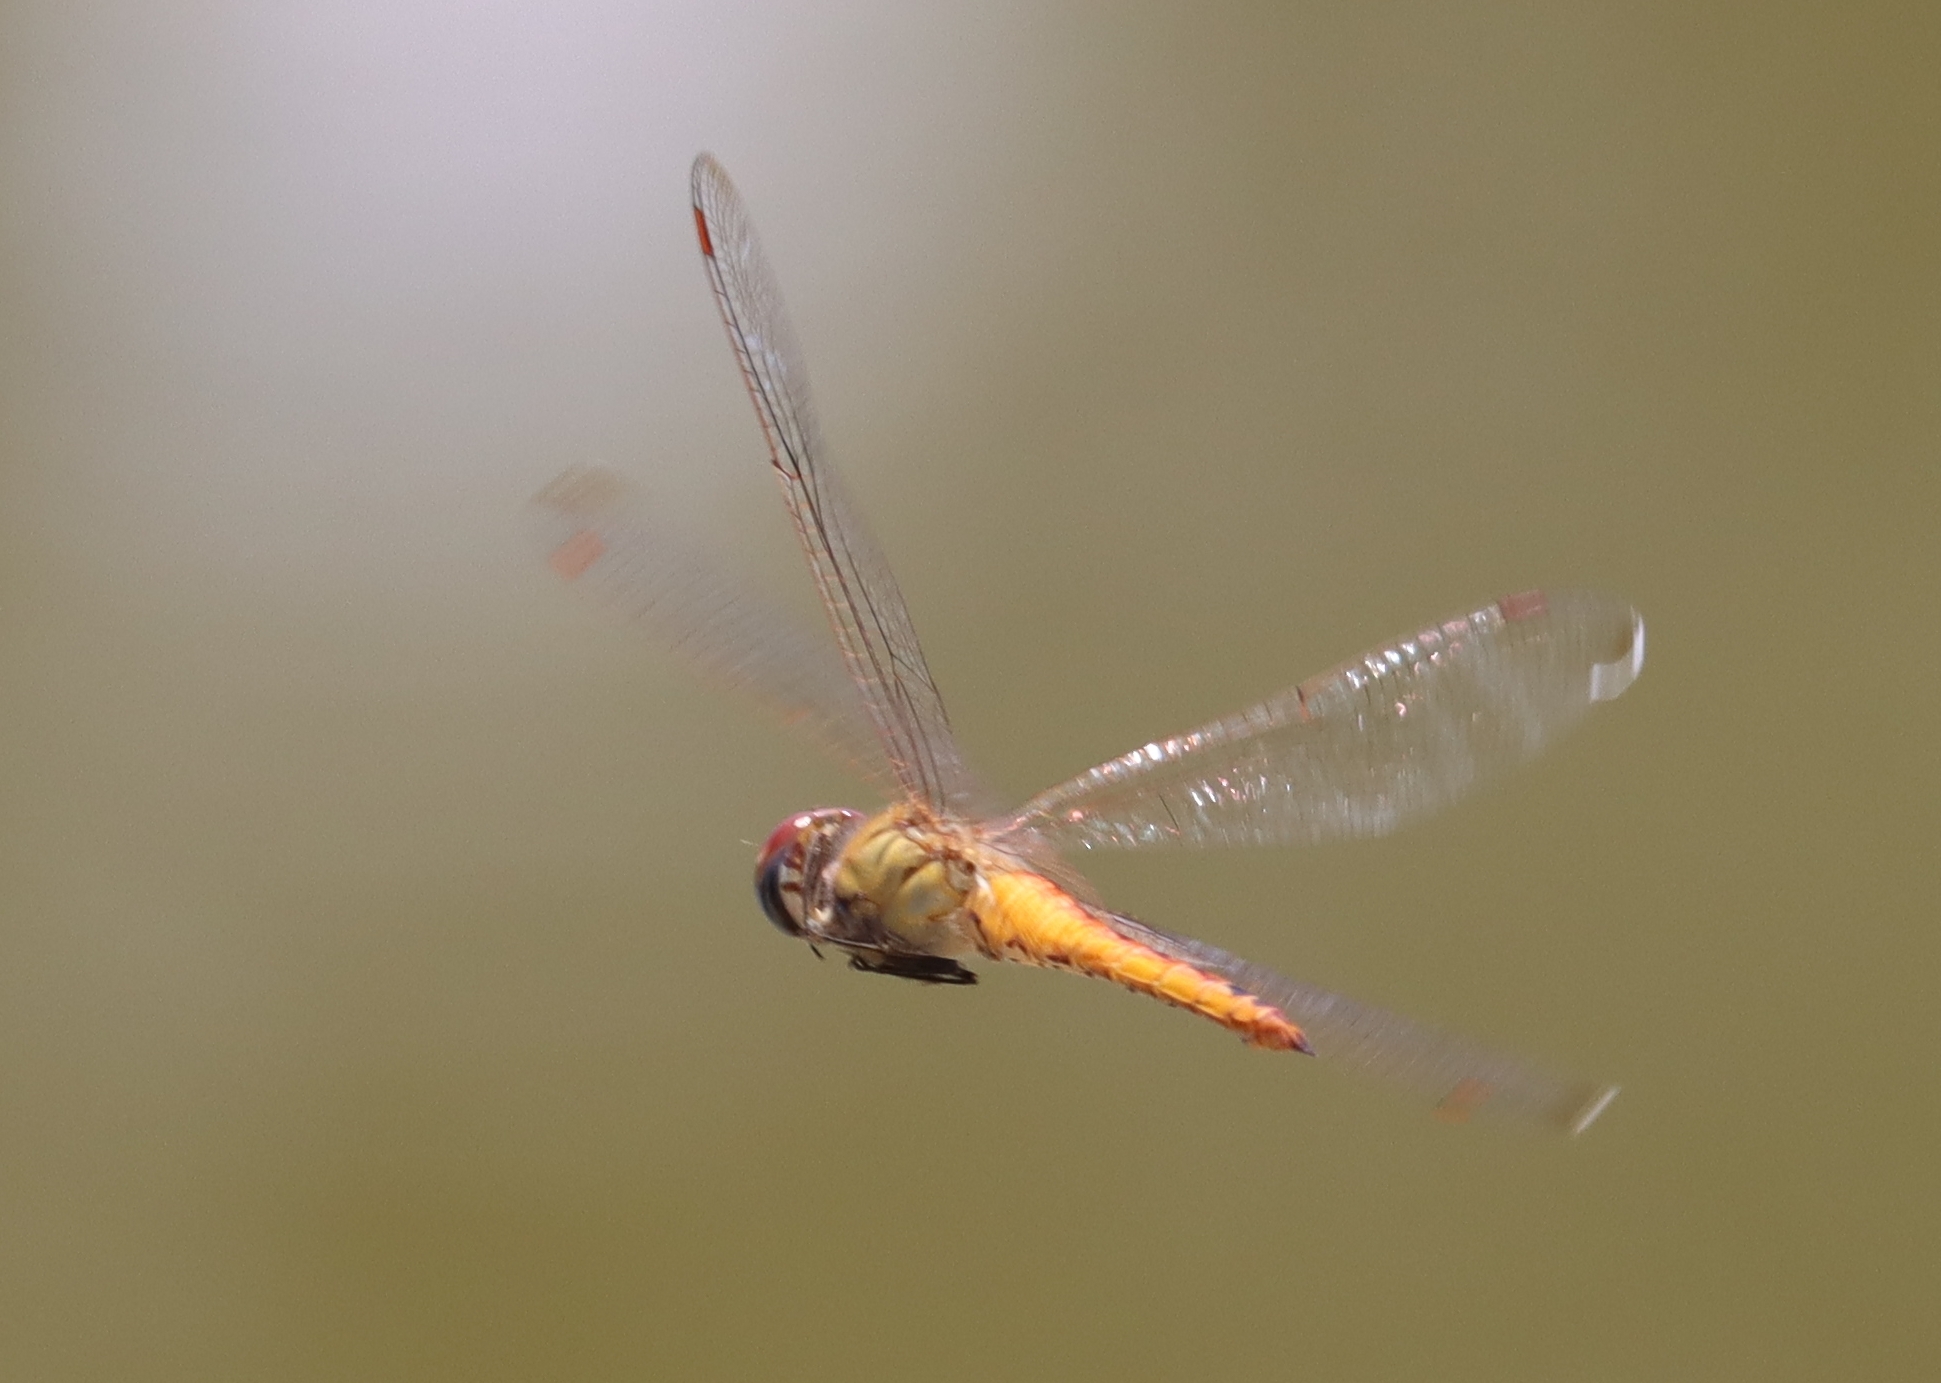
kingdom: Animalia
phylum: Arthropoda
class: Insecta
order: Odonata
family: Libellulidae
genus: Pantala
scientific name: Pantala flavescens
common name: Wandering glider
